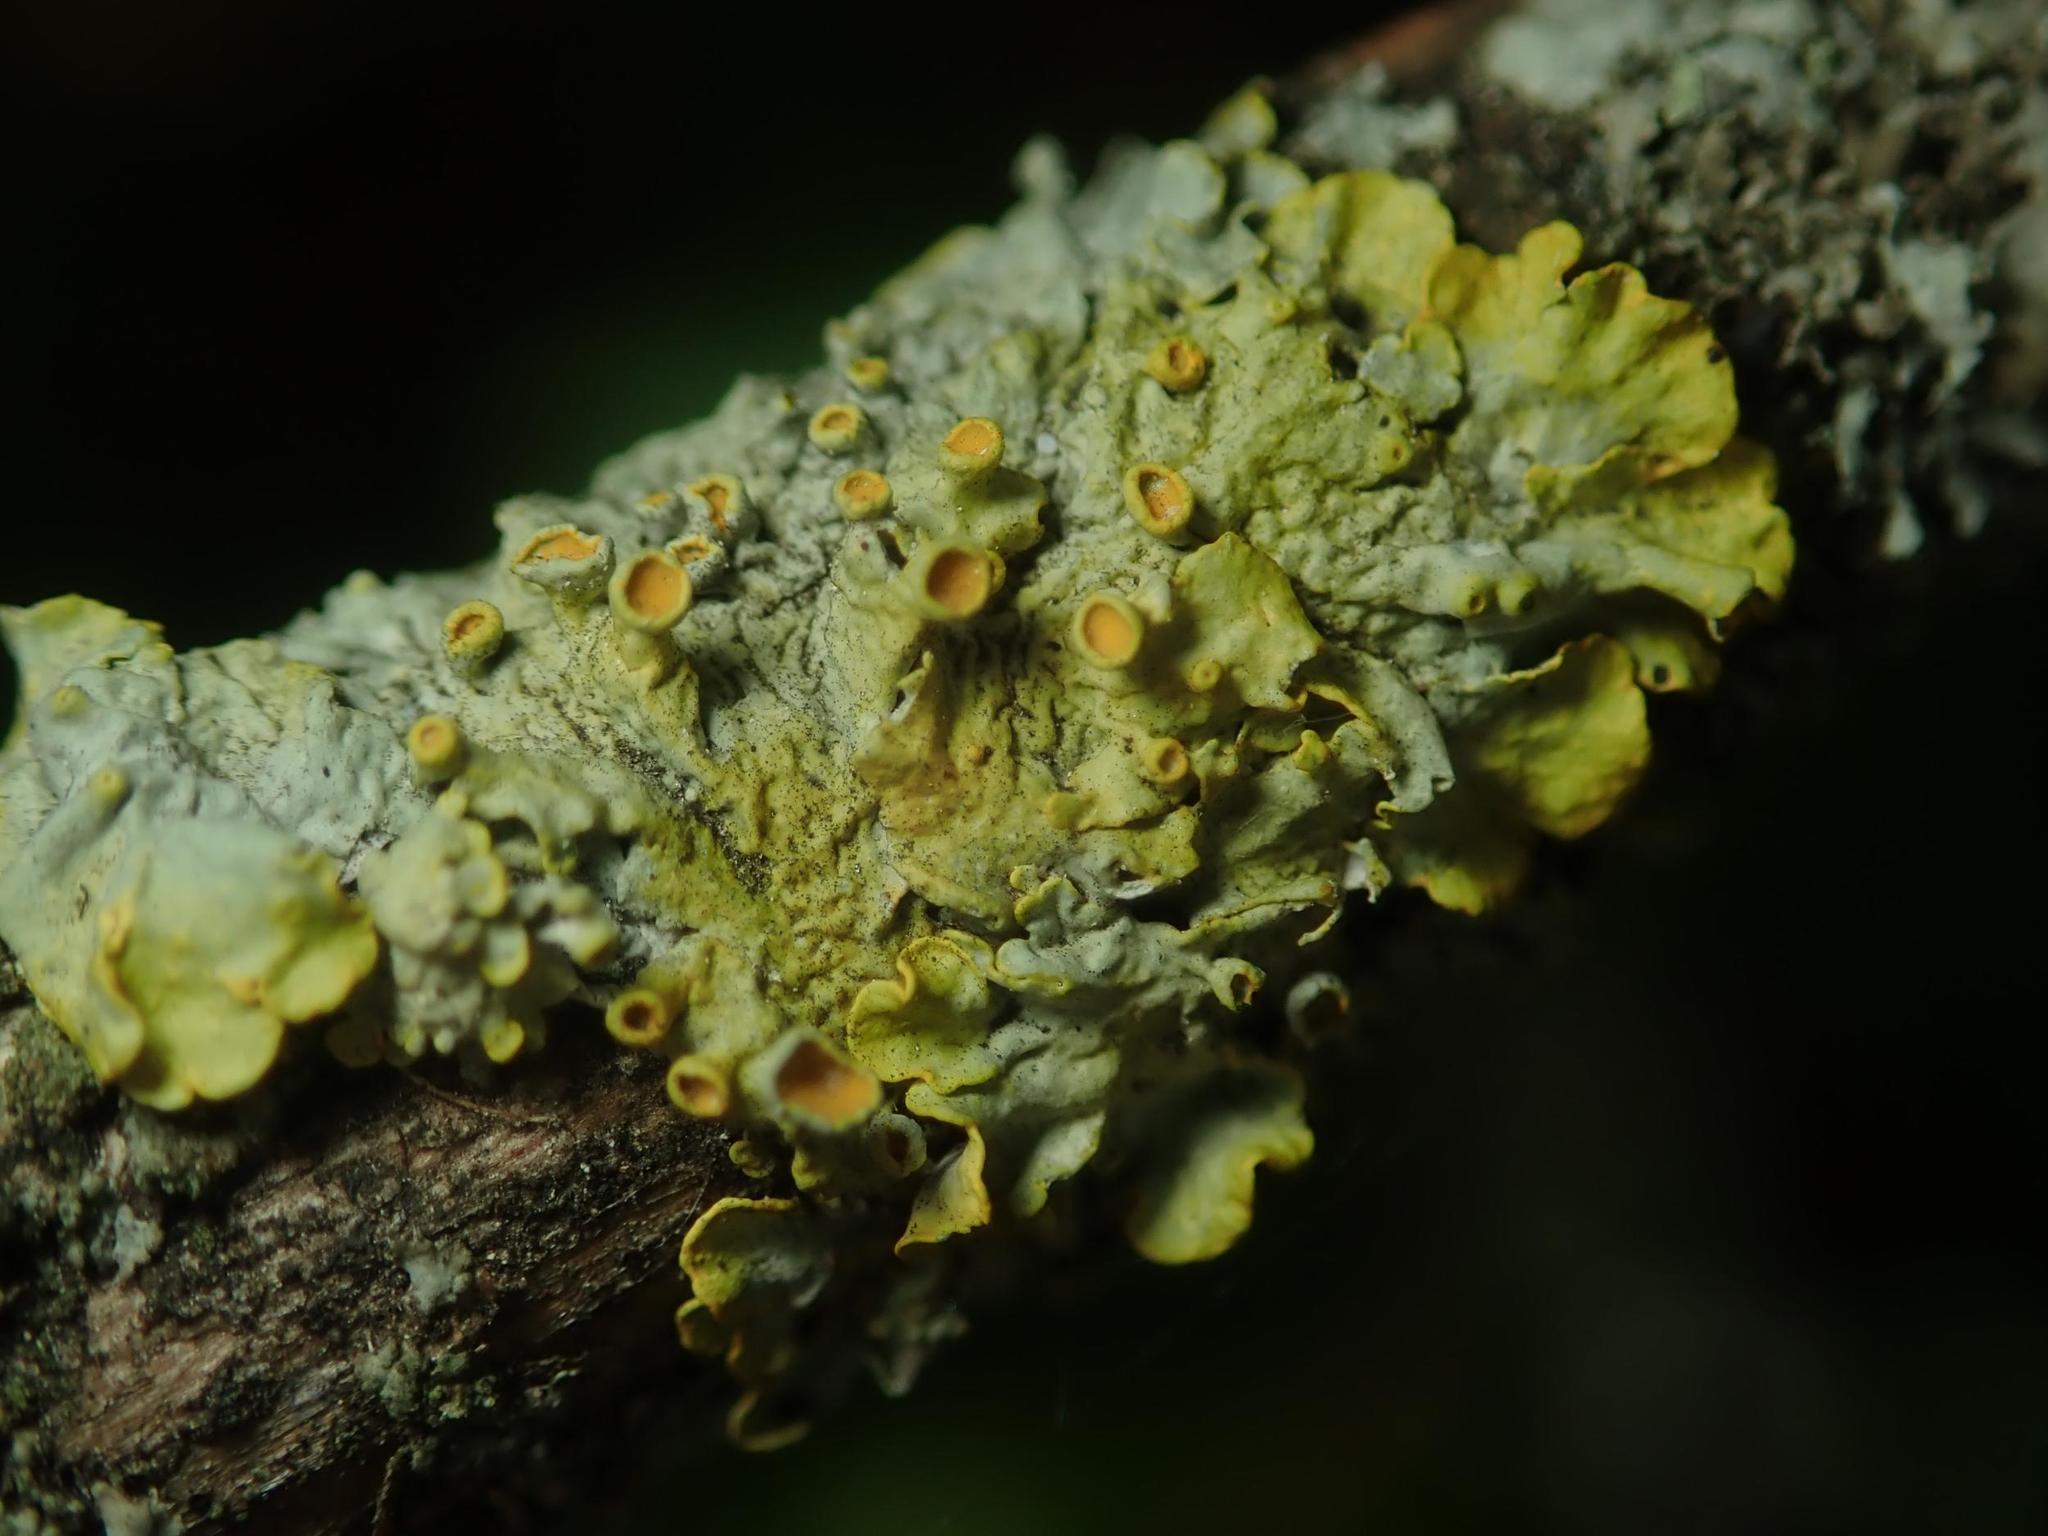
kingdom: Fungi
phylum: Ascomycota
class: Lecanoromycetes
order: Teloschistales
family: Teloschistaceae
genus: Xanthoria
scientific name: Xanthoria parietina
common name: Common orange lichen
